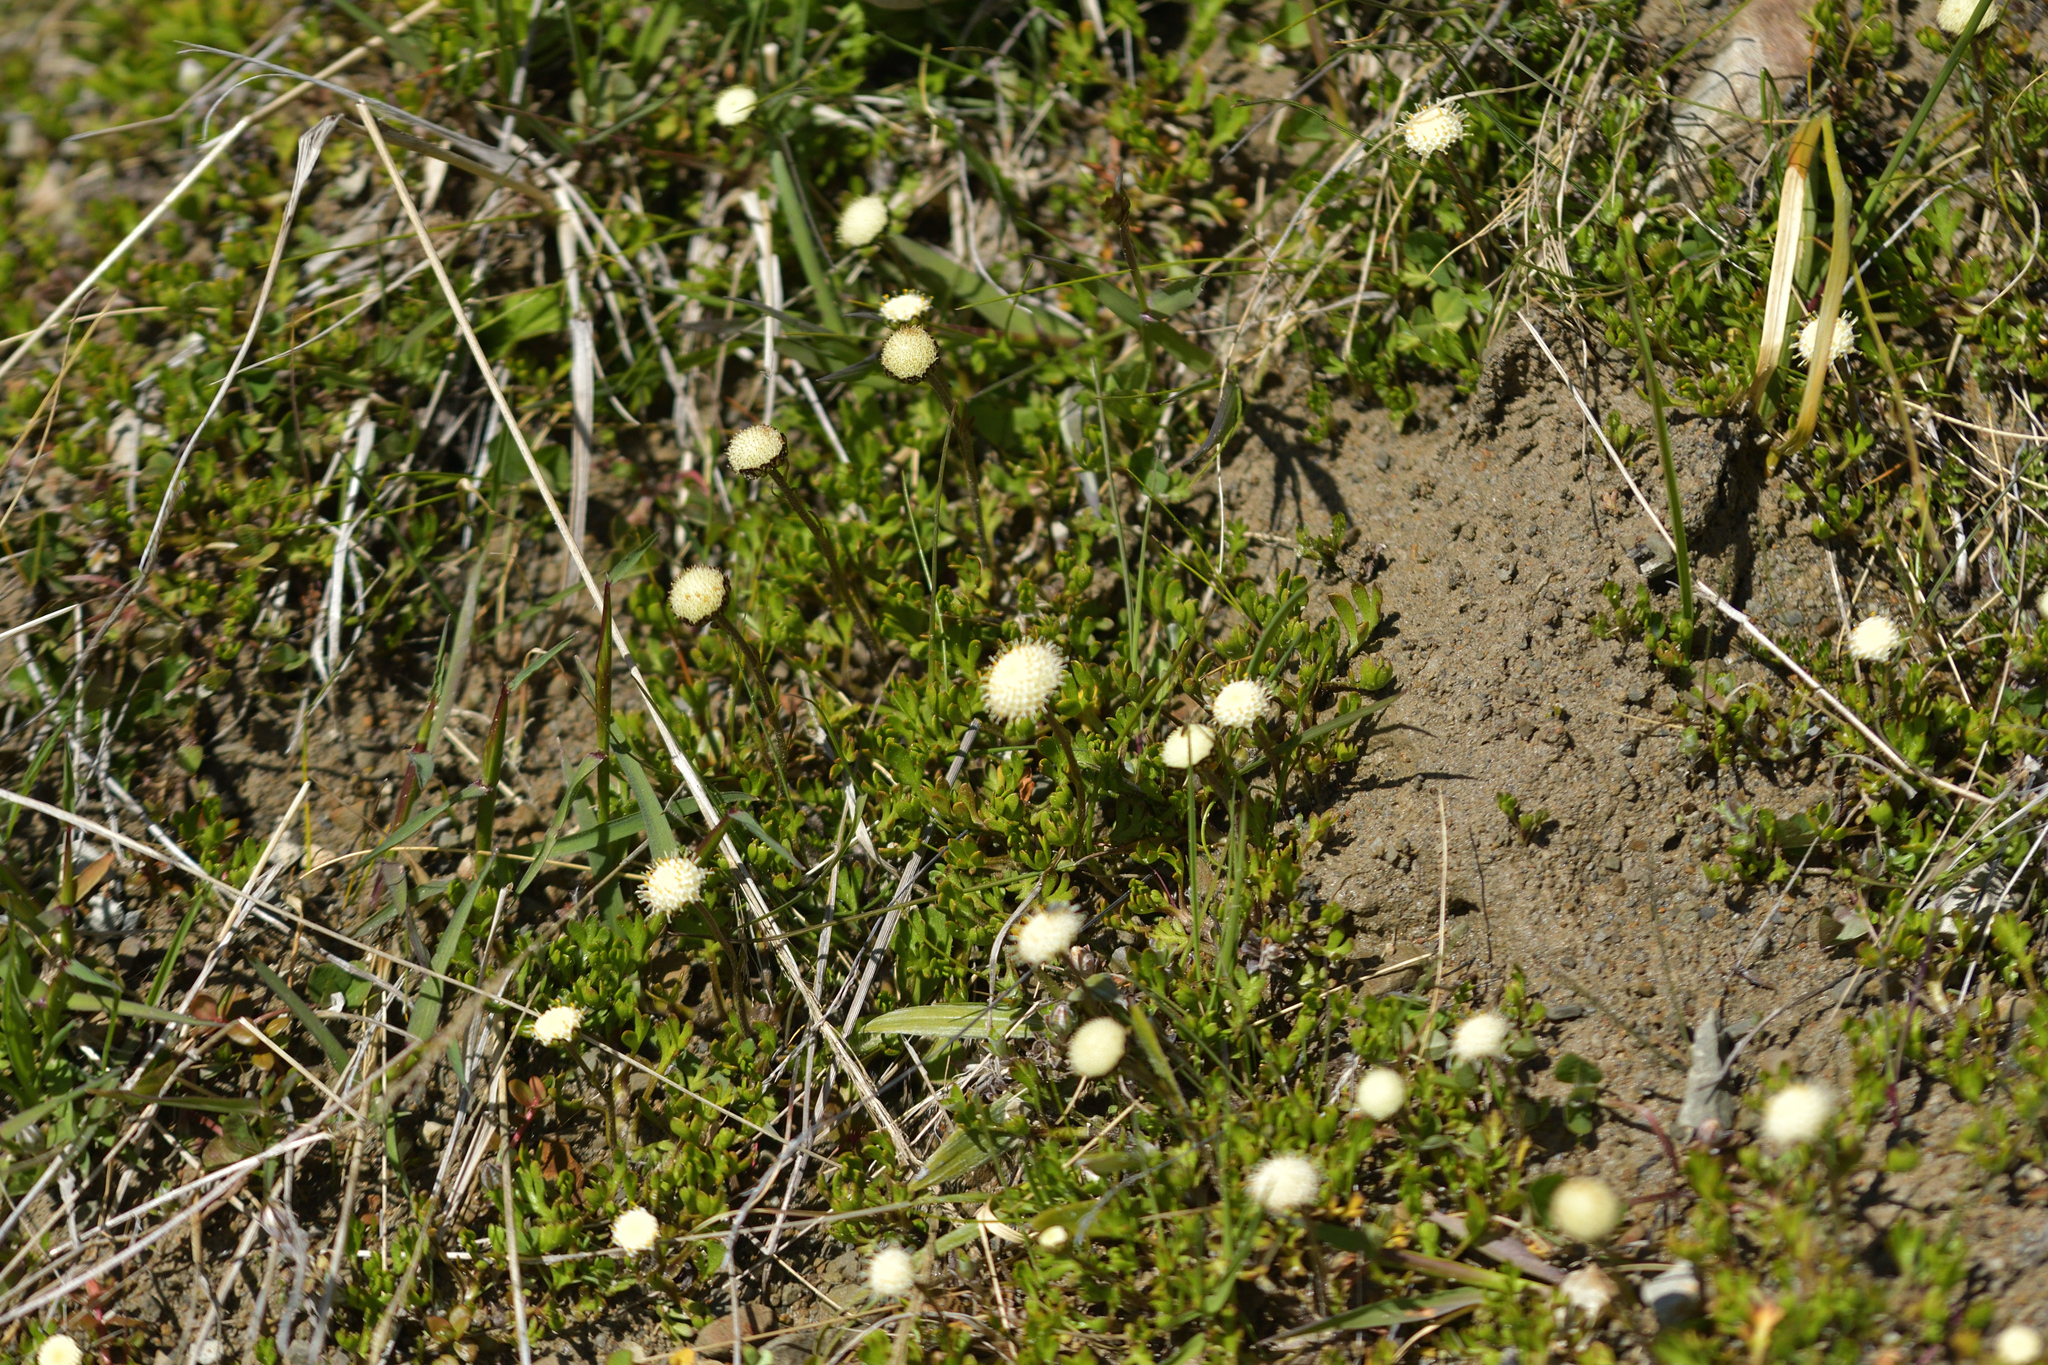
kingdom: Plantae
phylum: Tracheophyta
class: Magnoliopsida
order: Asterales
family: Asteraceae
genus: Leptinella
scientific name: Leptinella pyrethrifolia
